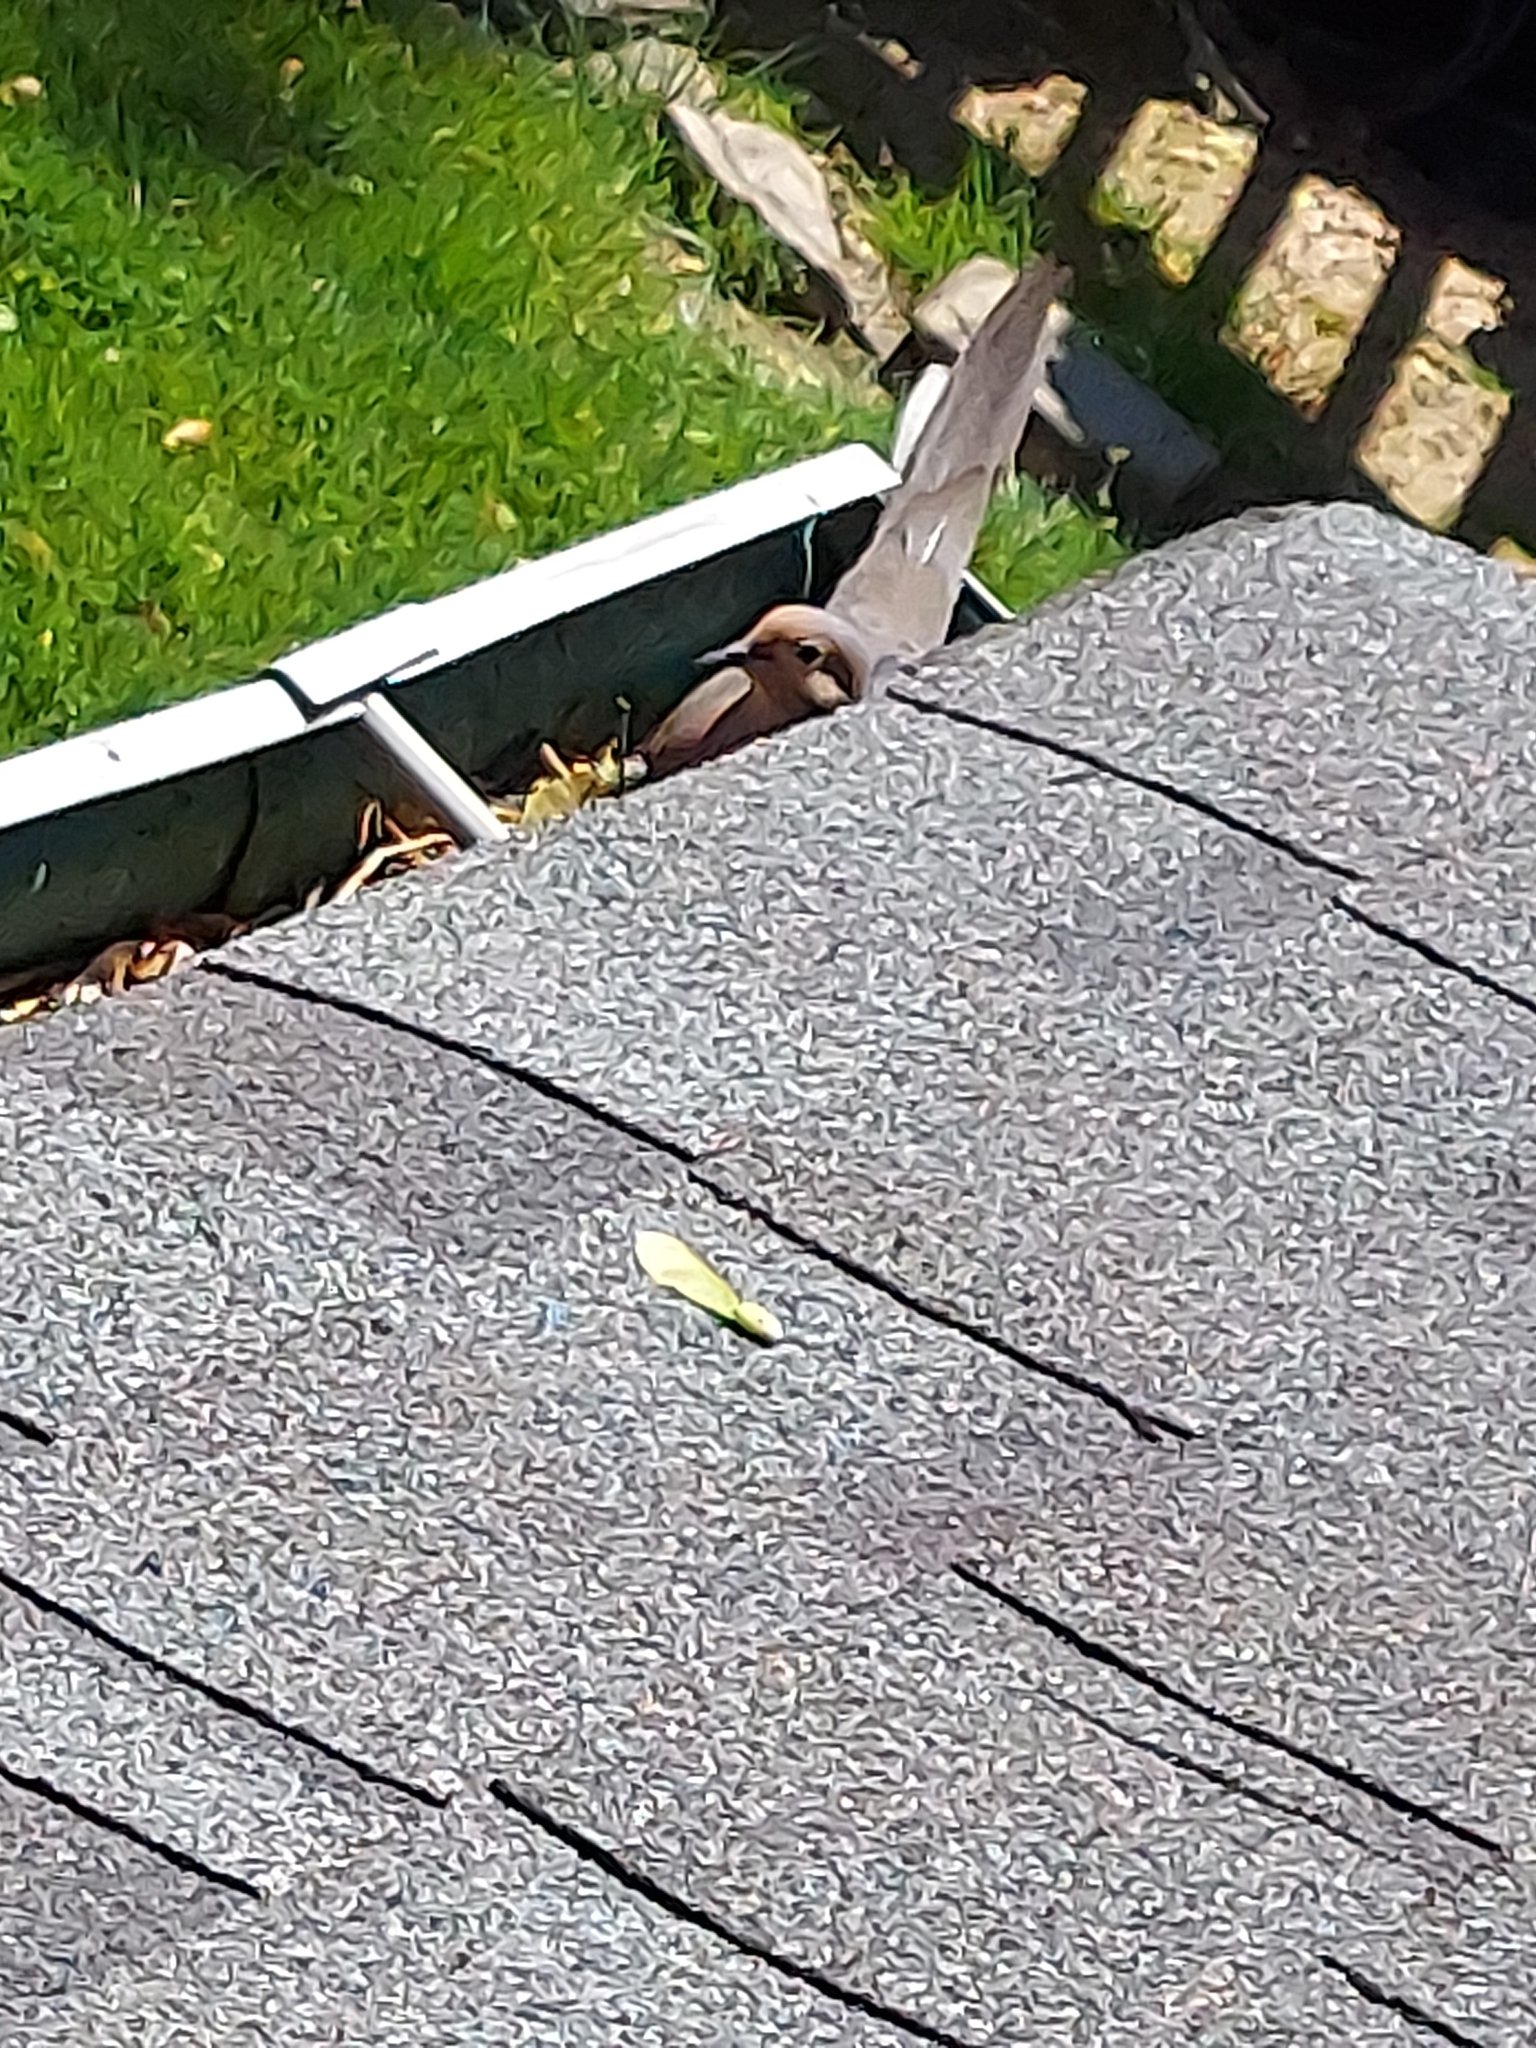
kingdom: Animalia
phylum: Chordata
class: Aves
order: Columbiformes
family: Columbidae
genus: Zenaida
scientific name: Zenaida macroura
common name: Mourning dove
